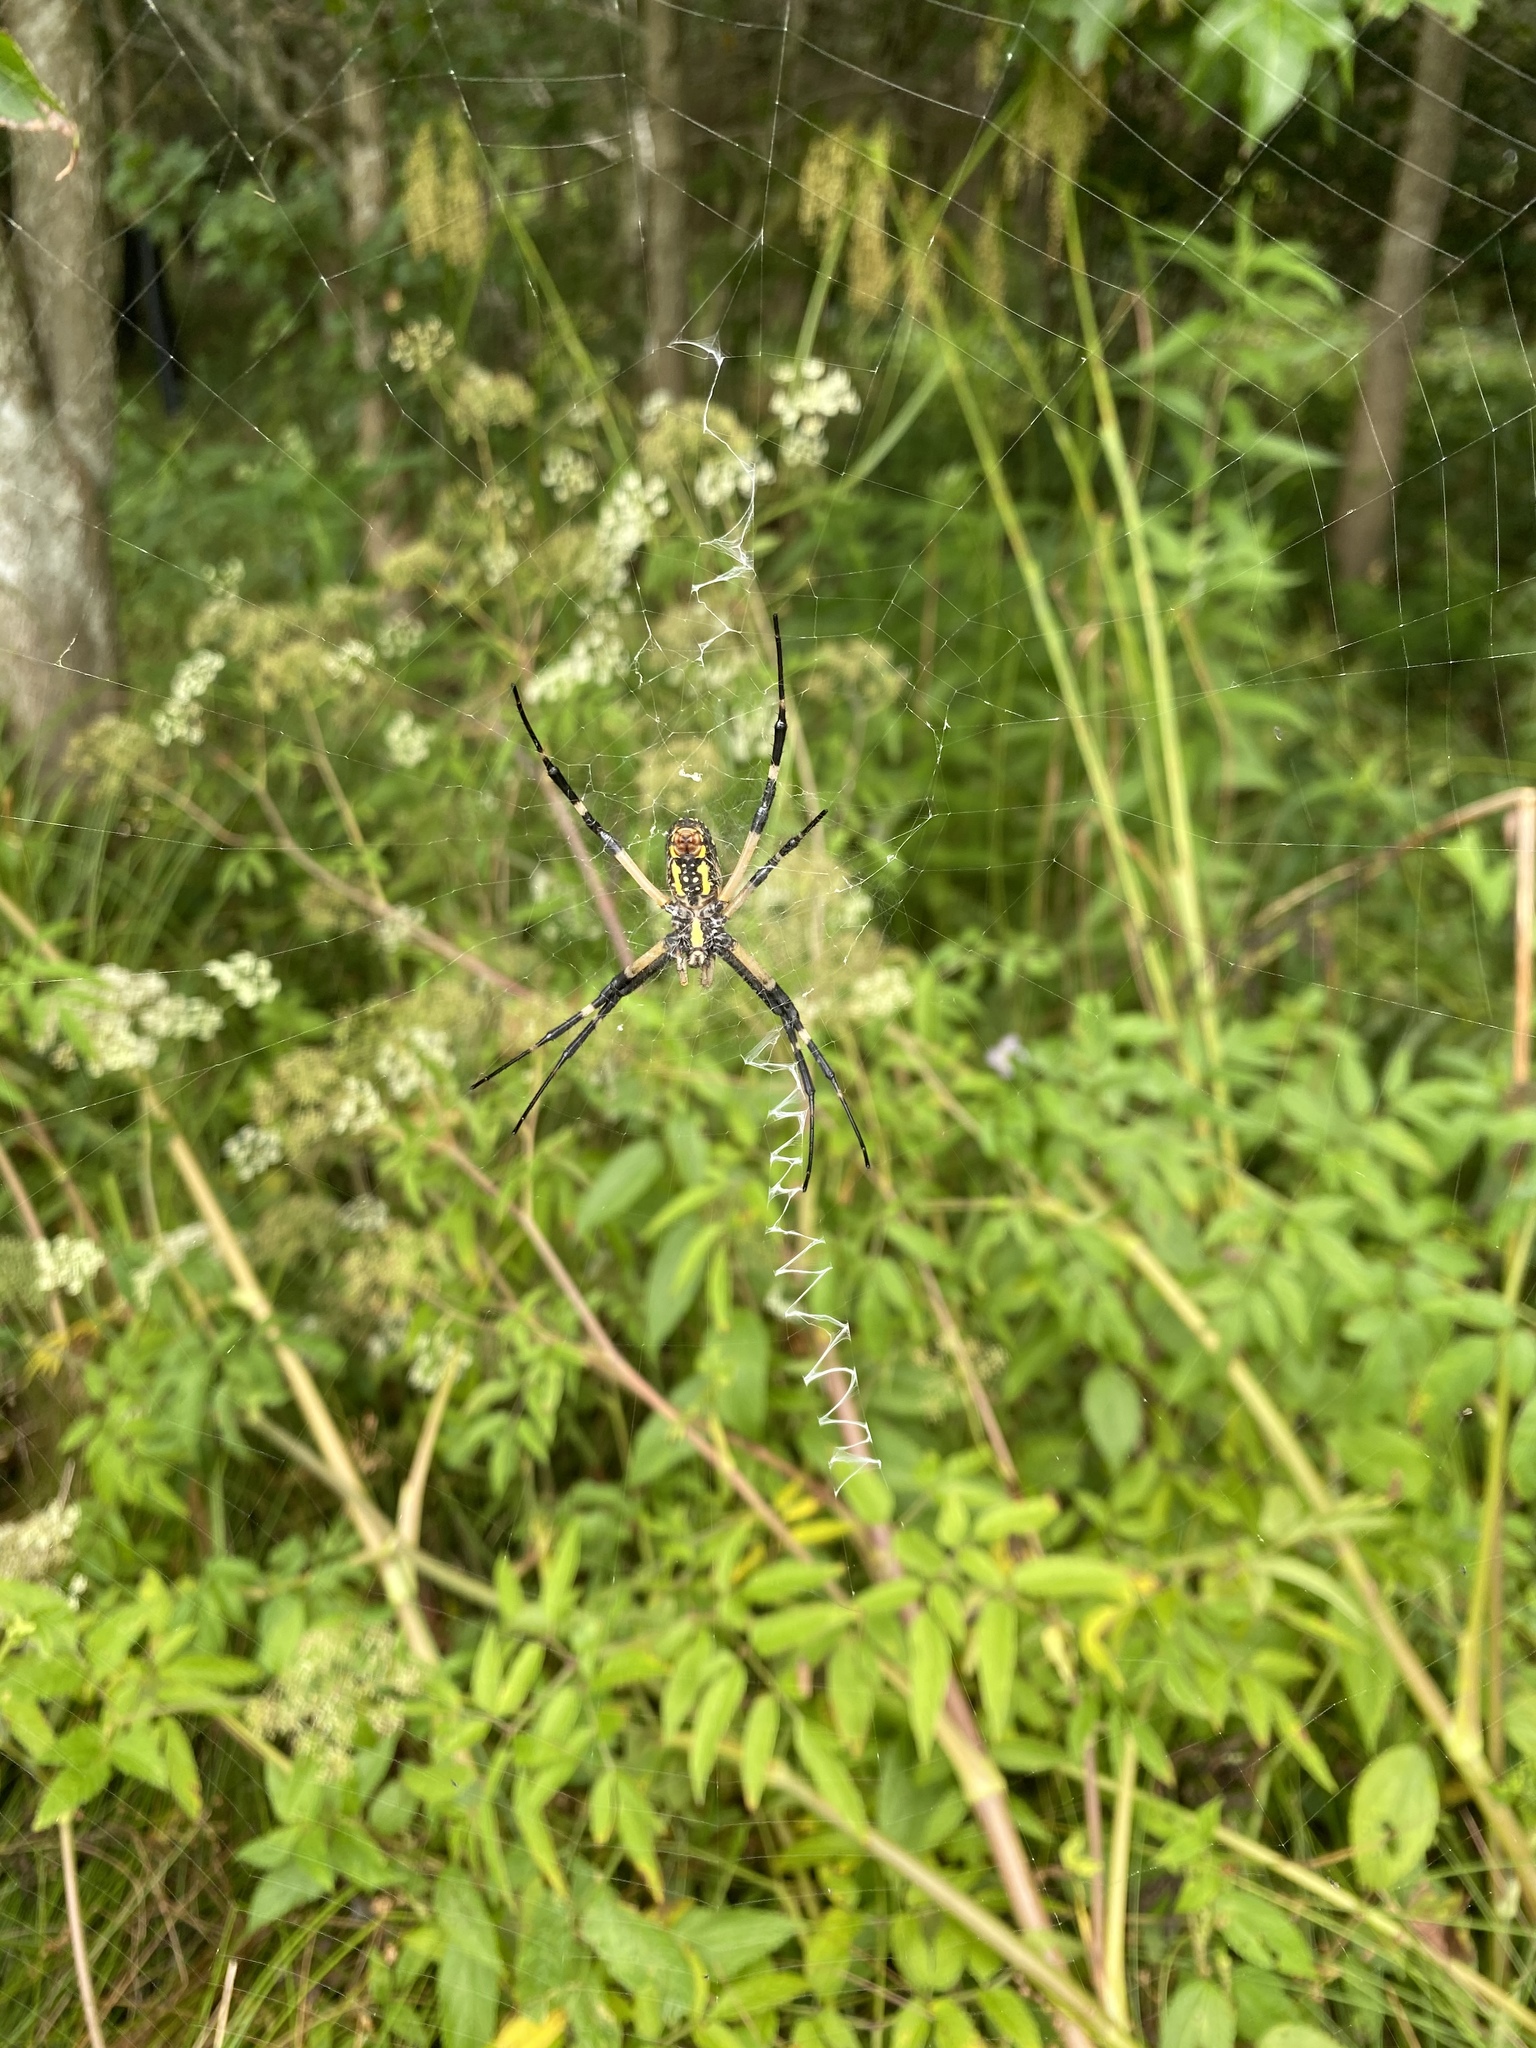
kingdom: Animalia
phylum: Arthropoda
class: Arachnida
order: Araneae
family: Araneidae
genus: Argiope
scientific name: Argiope aurantia
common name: Orb weavers
